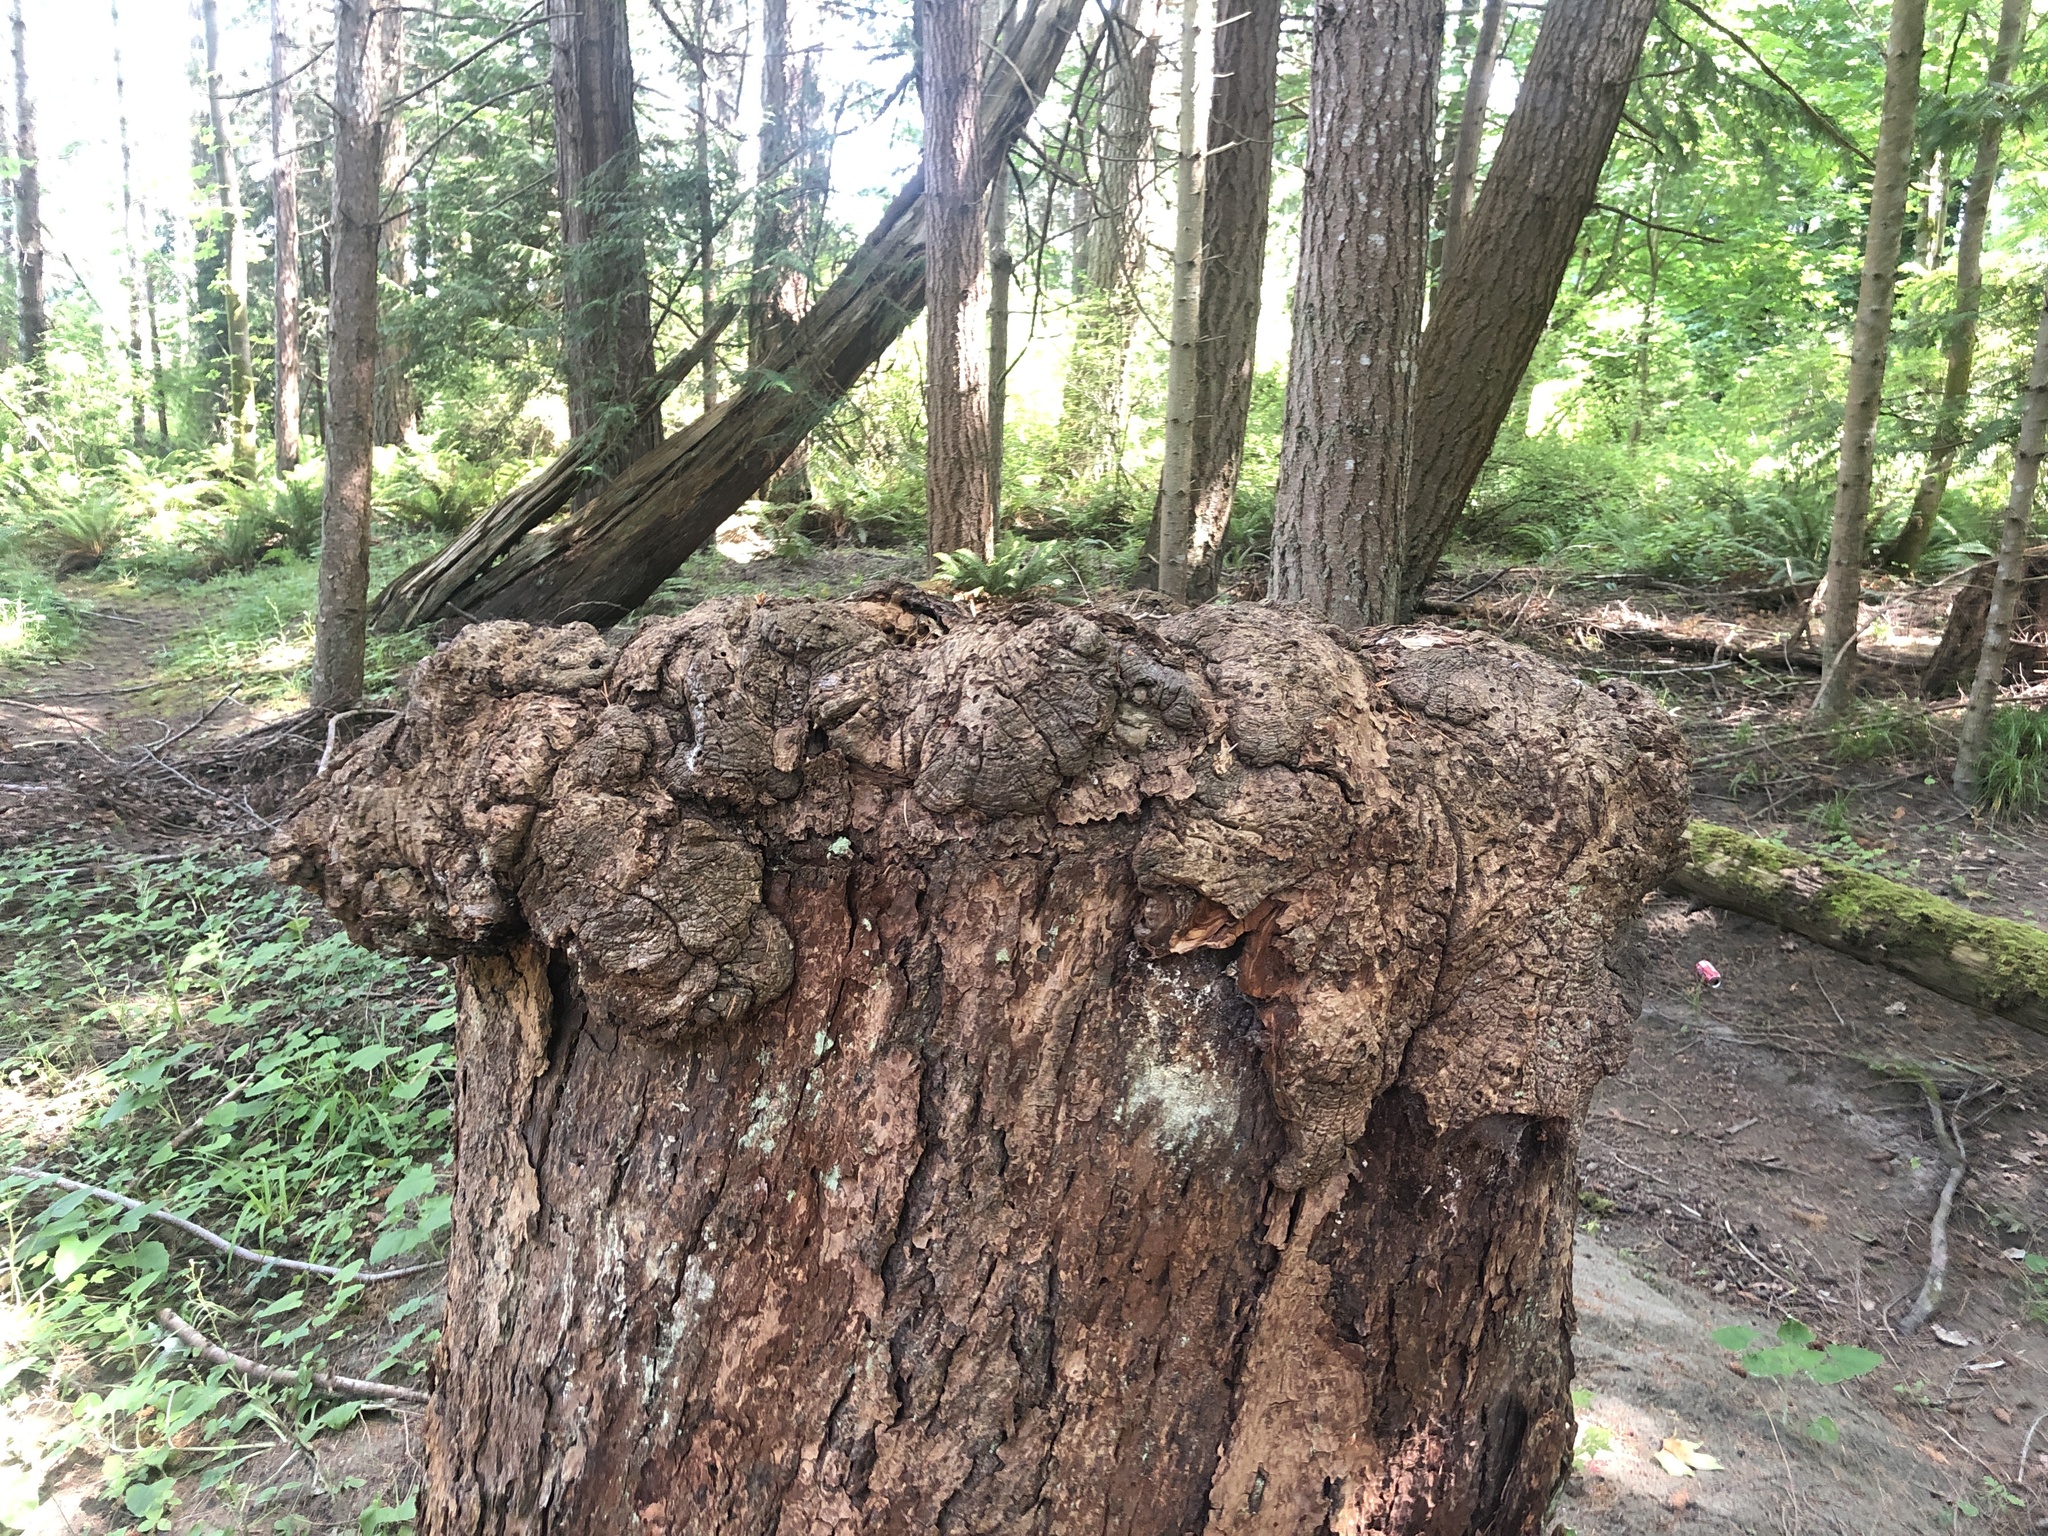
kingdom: Plantae
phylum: Tracheophyta
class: Pinopsida
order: Pinales
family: Pinaceae
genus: Pseudotsuga
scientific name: Pseudotsuga menziesii
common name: Douglas fir
